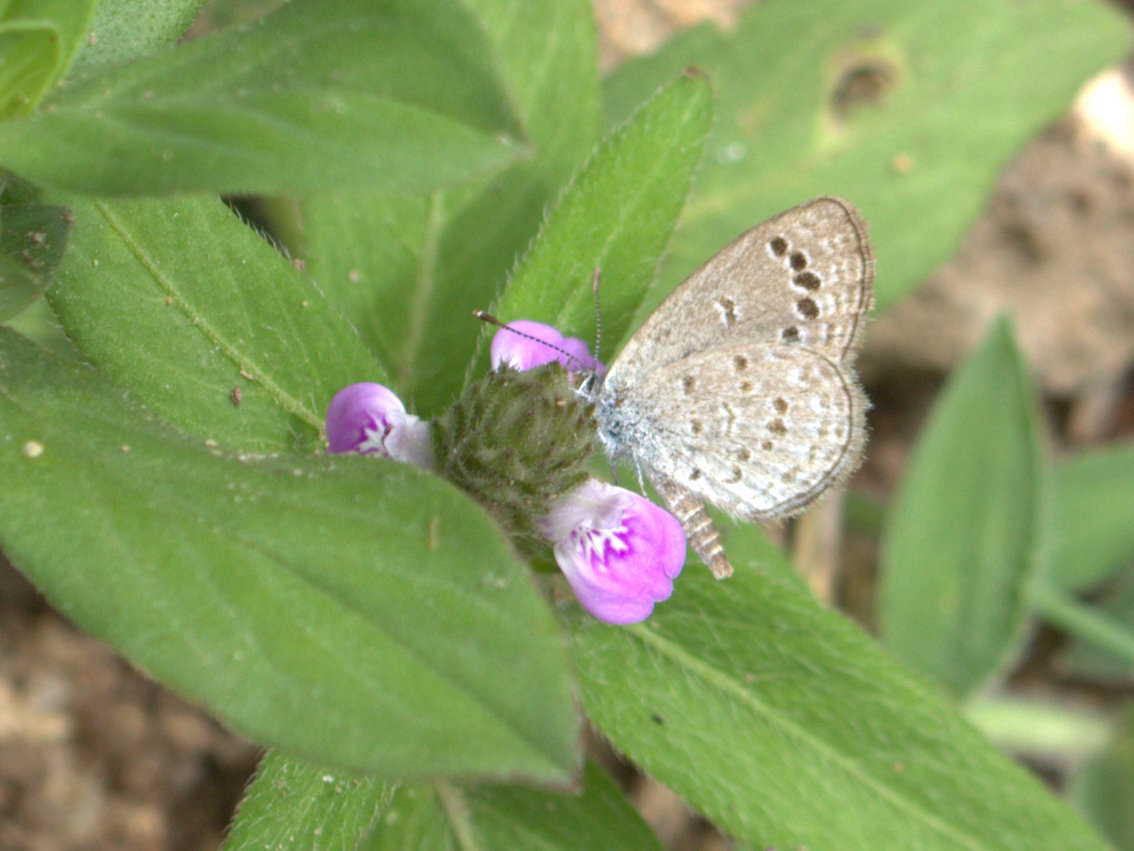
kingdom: Animalia
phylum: Arthropoda
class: Insecta
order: Lepidoptera
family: Lycaenidae
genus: Zizina
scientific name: Zizina otis
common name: Lesser grass blue
